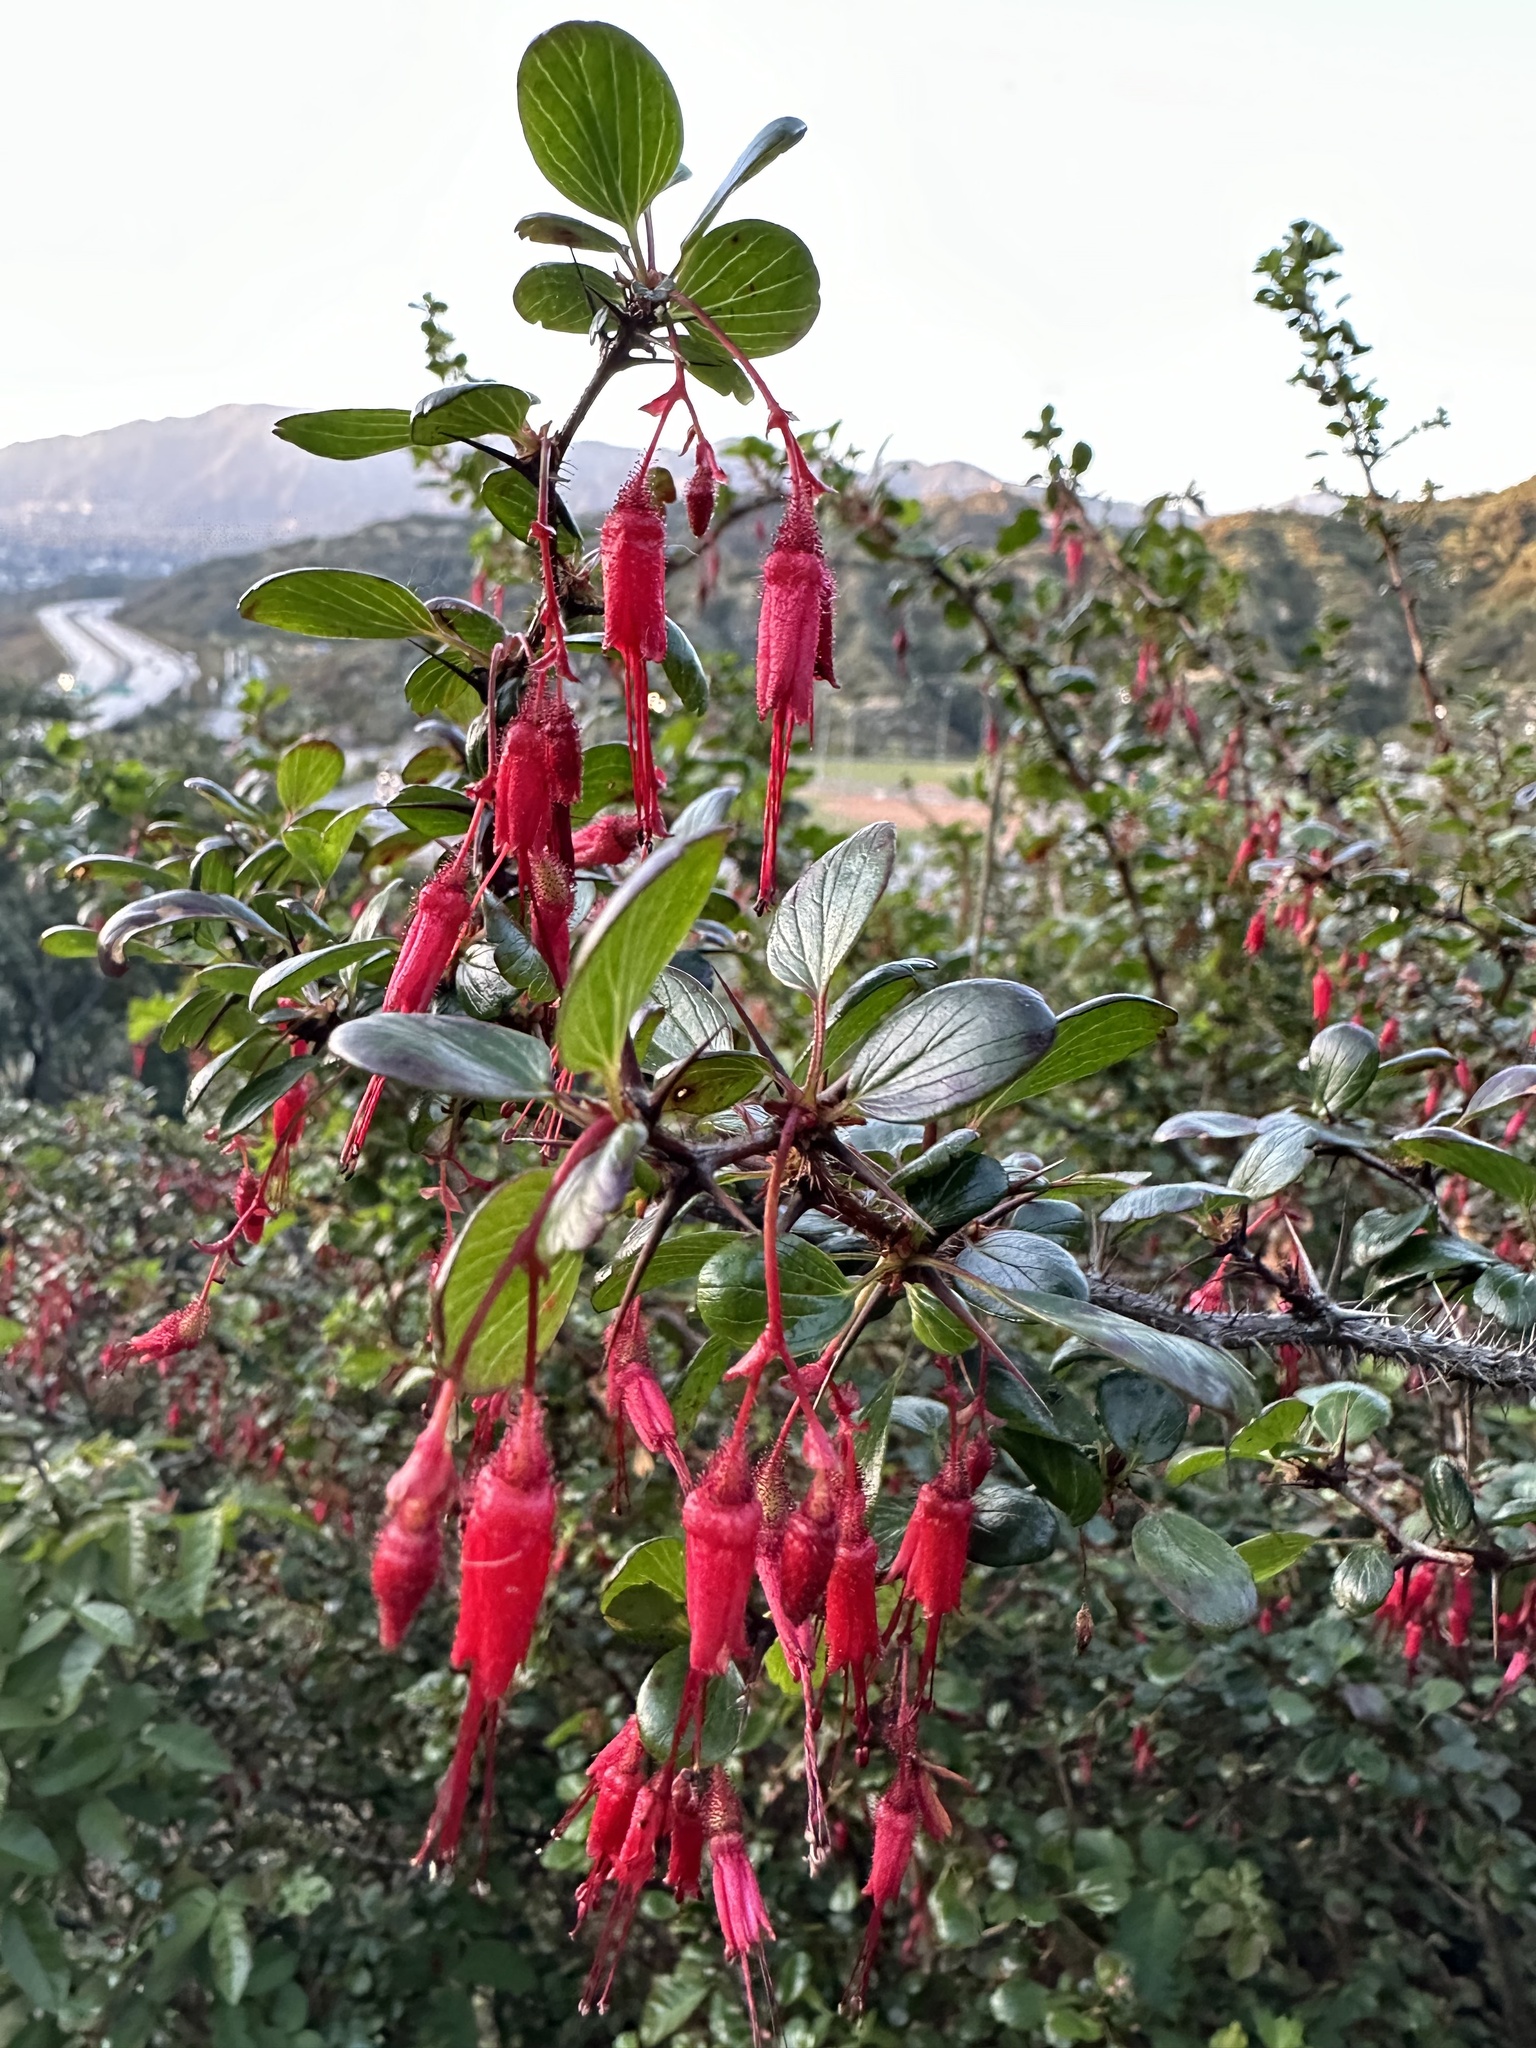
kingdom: Plantae
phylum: Tracheophyta
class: Magnoliopsida
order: Saxifragales
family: Grossulariaceae
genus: Ribes
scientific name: Ribes speciosum
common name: Fuchsia-flower gooseberry
